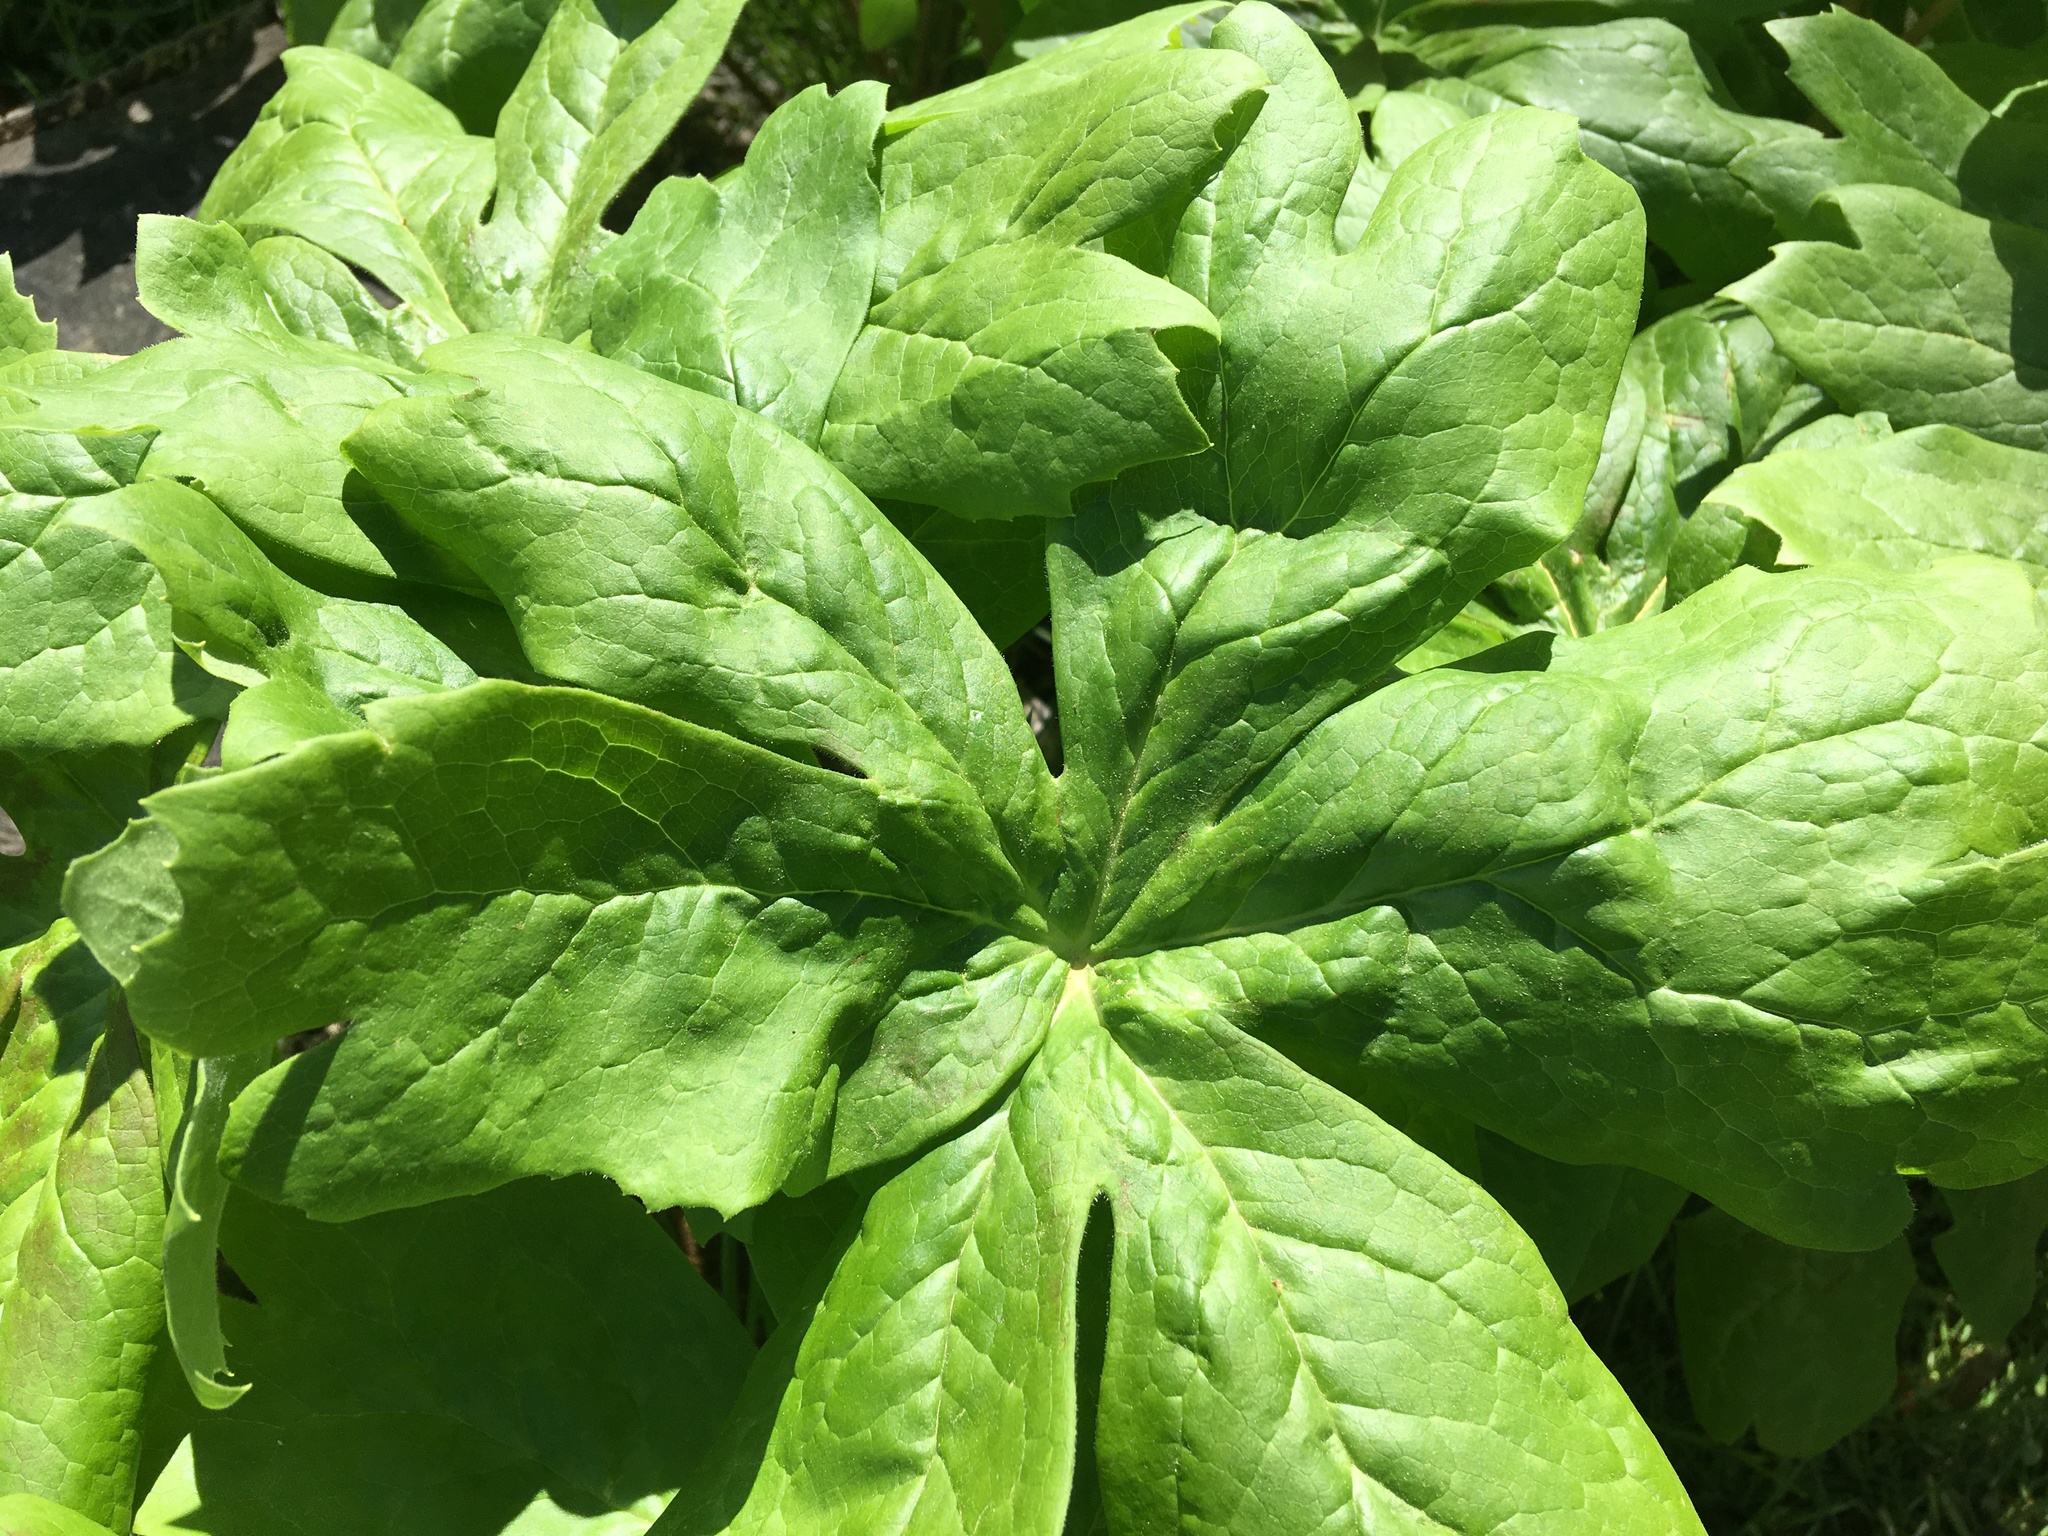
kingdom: Plantae
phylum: Tracheophyta
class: Magnoliopsida
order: Ranunculales
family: Berberidaceae
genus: Podophyllum
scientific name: Podophyllum peltatum
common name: Wild mandrake
